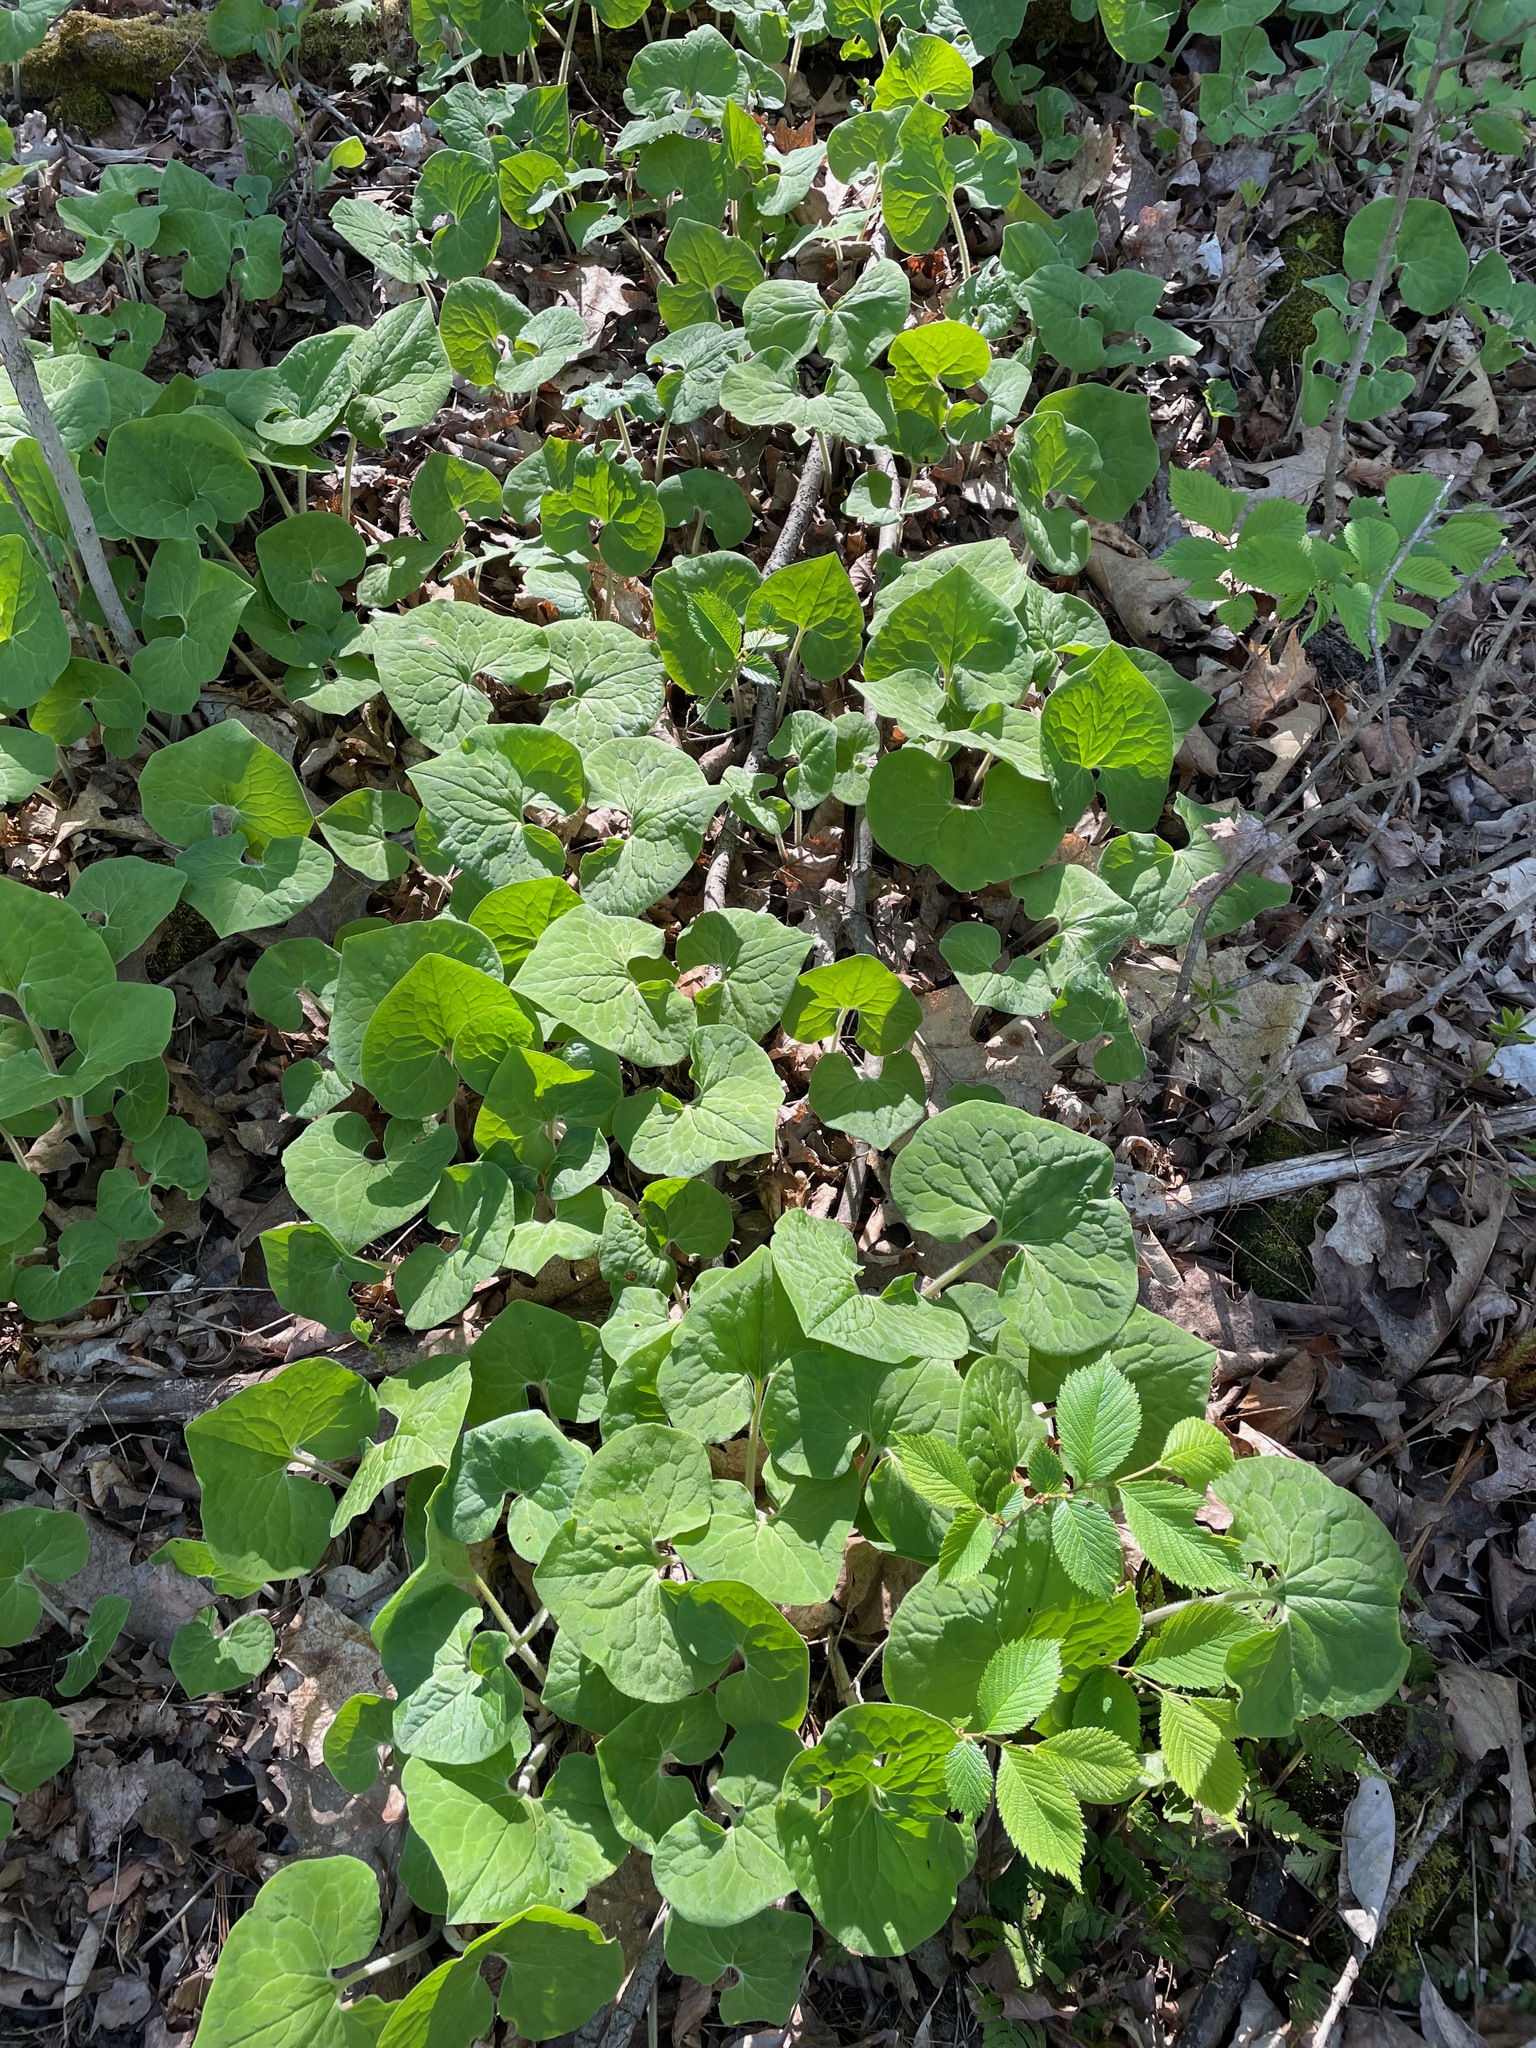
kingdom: Plantae
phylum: Tracheophyta
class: Magnoliopsida
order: Piperales
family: Aristolochiaceae
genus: Asarum
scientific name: Asarum canadense
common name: Wild ginger
